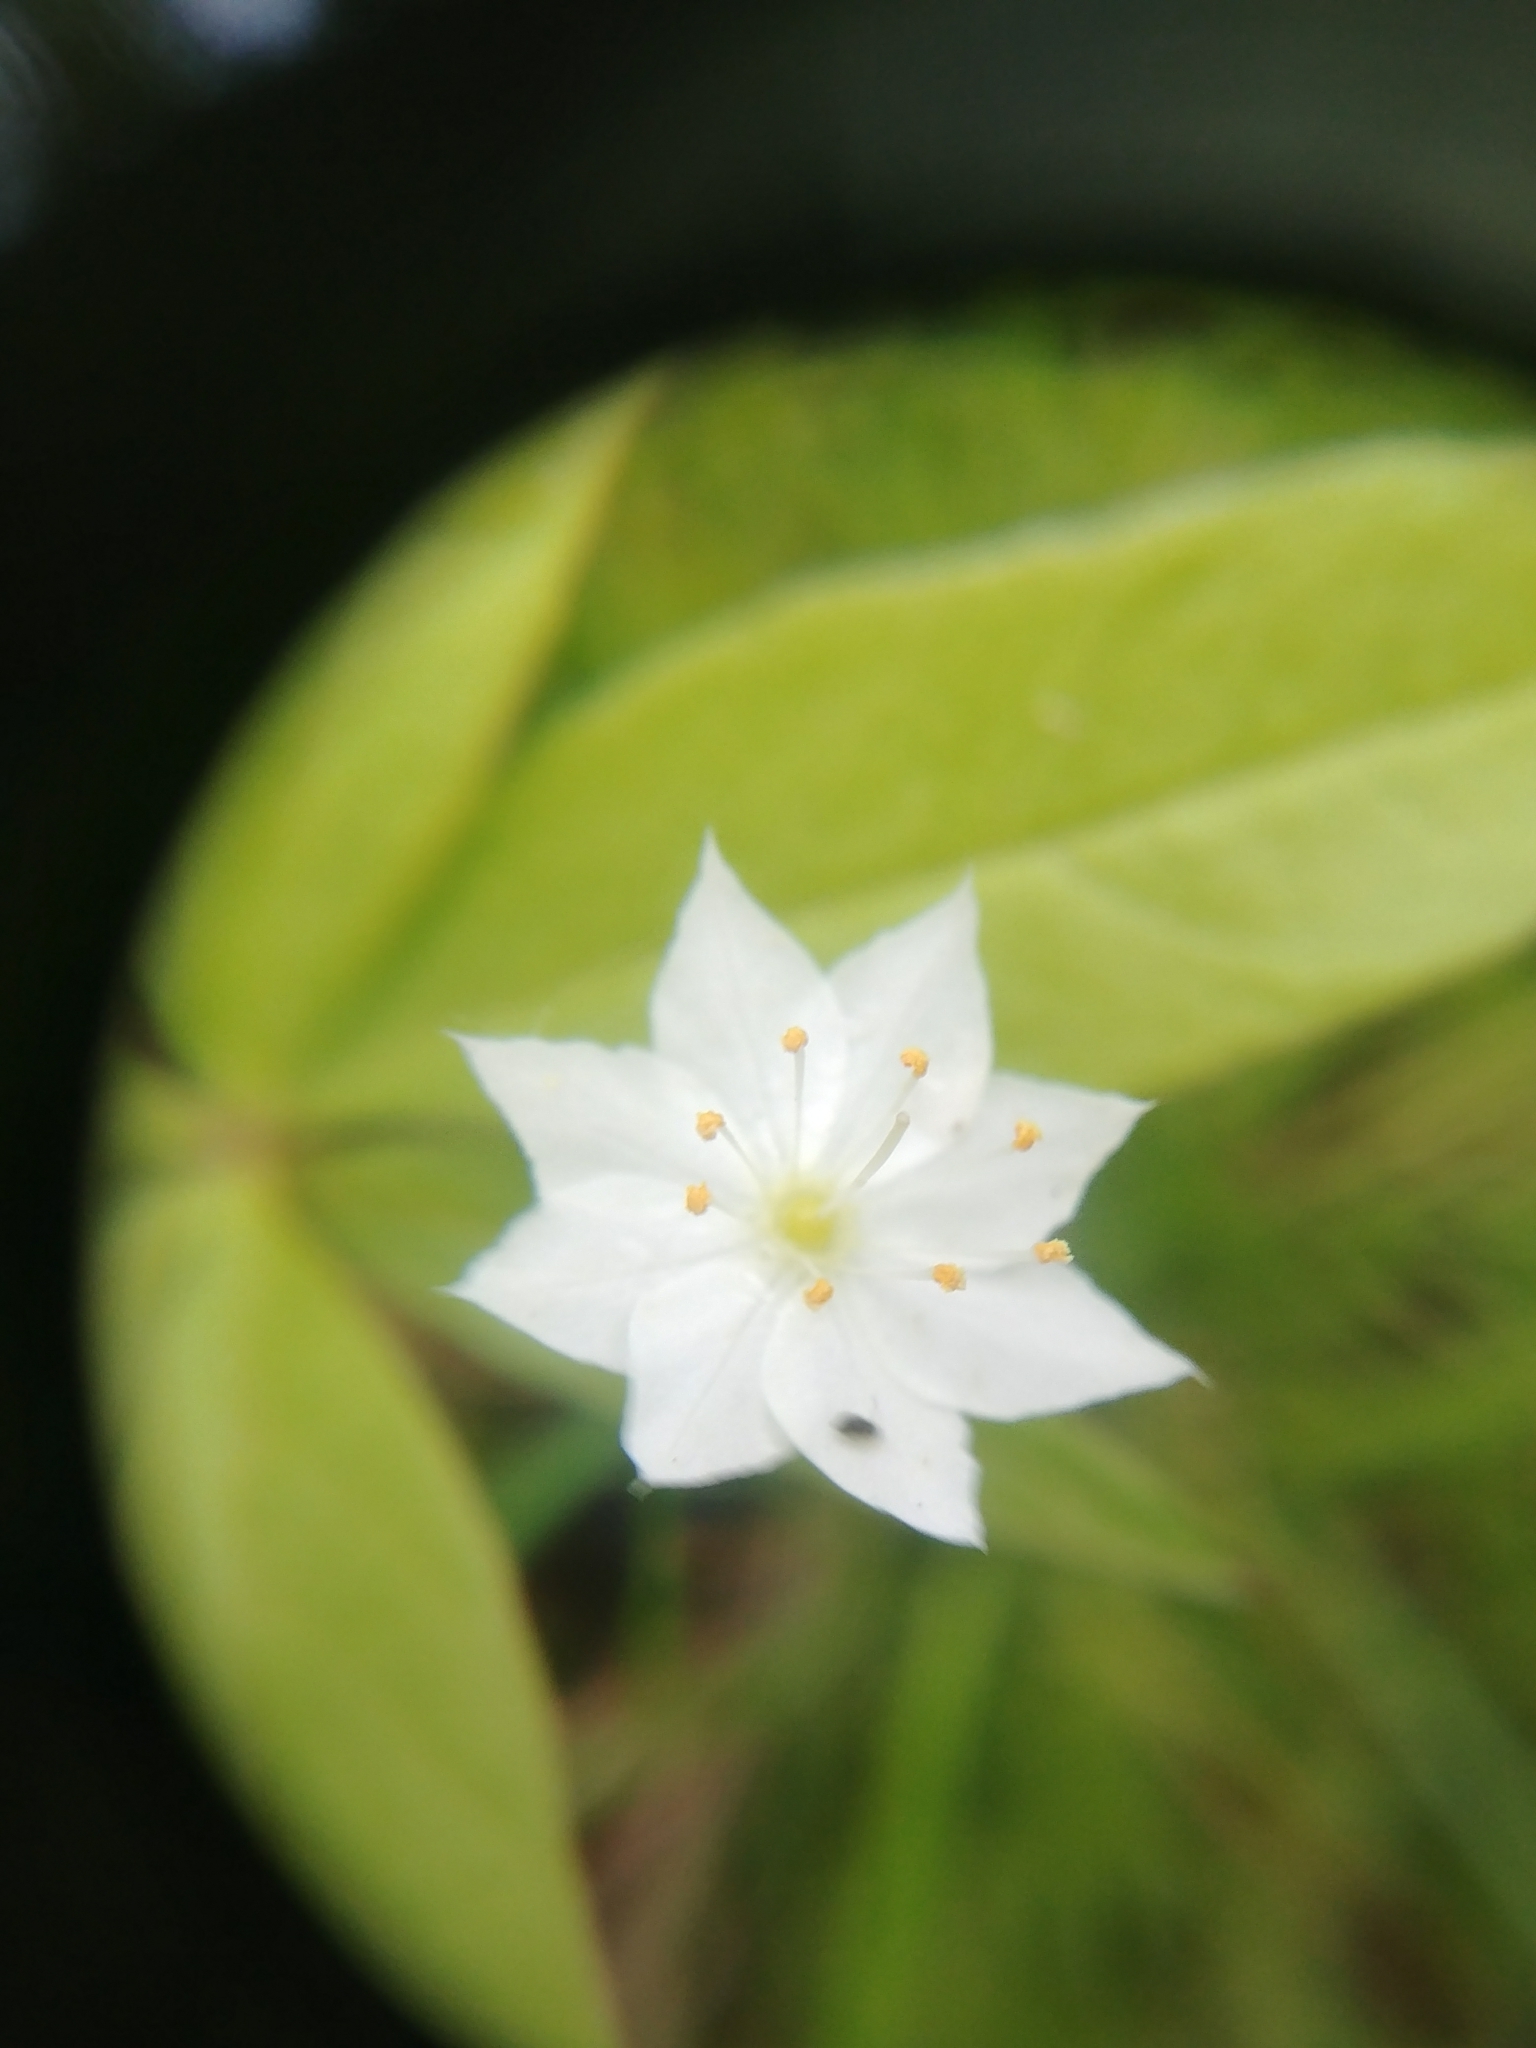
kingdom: Plantae
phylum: Tracheophyta
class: Magnoliopsida
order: Ericales
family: Primulaceae
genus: Lysimachia
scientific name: Lysimachia borealis
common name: American starflower
